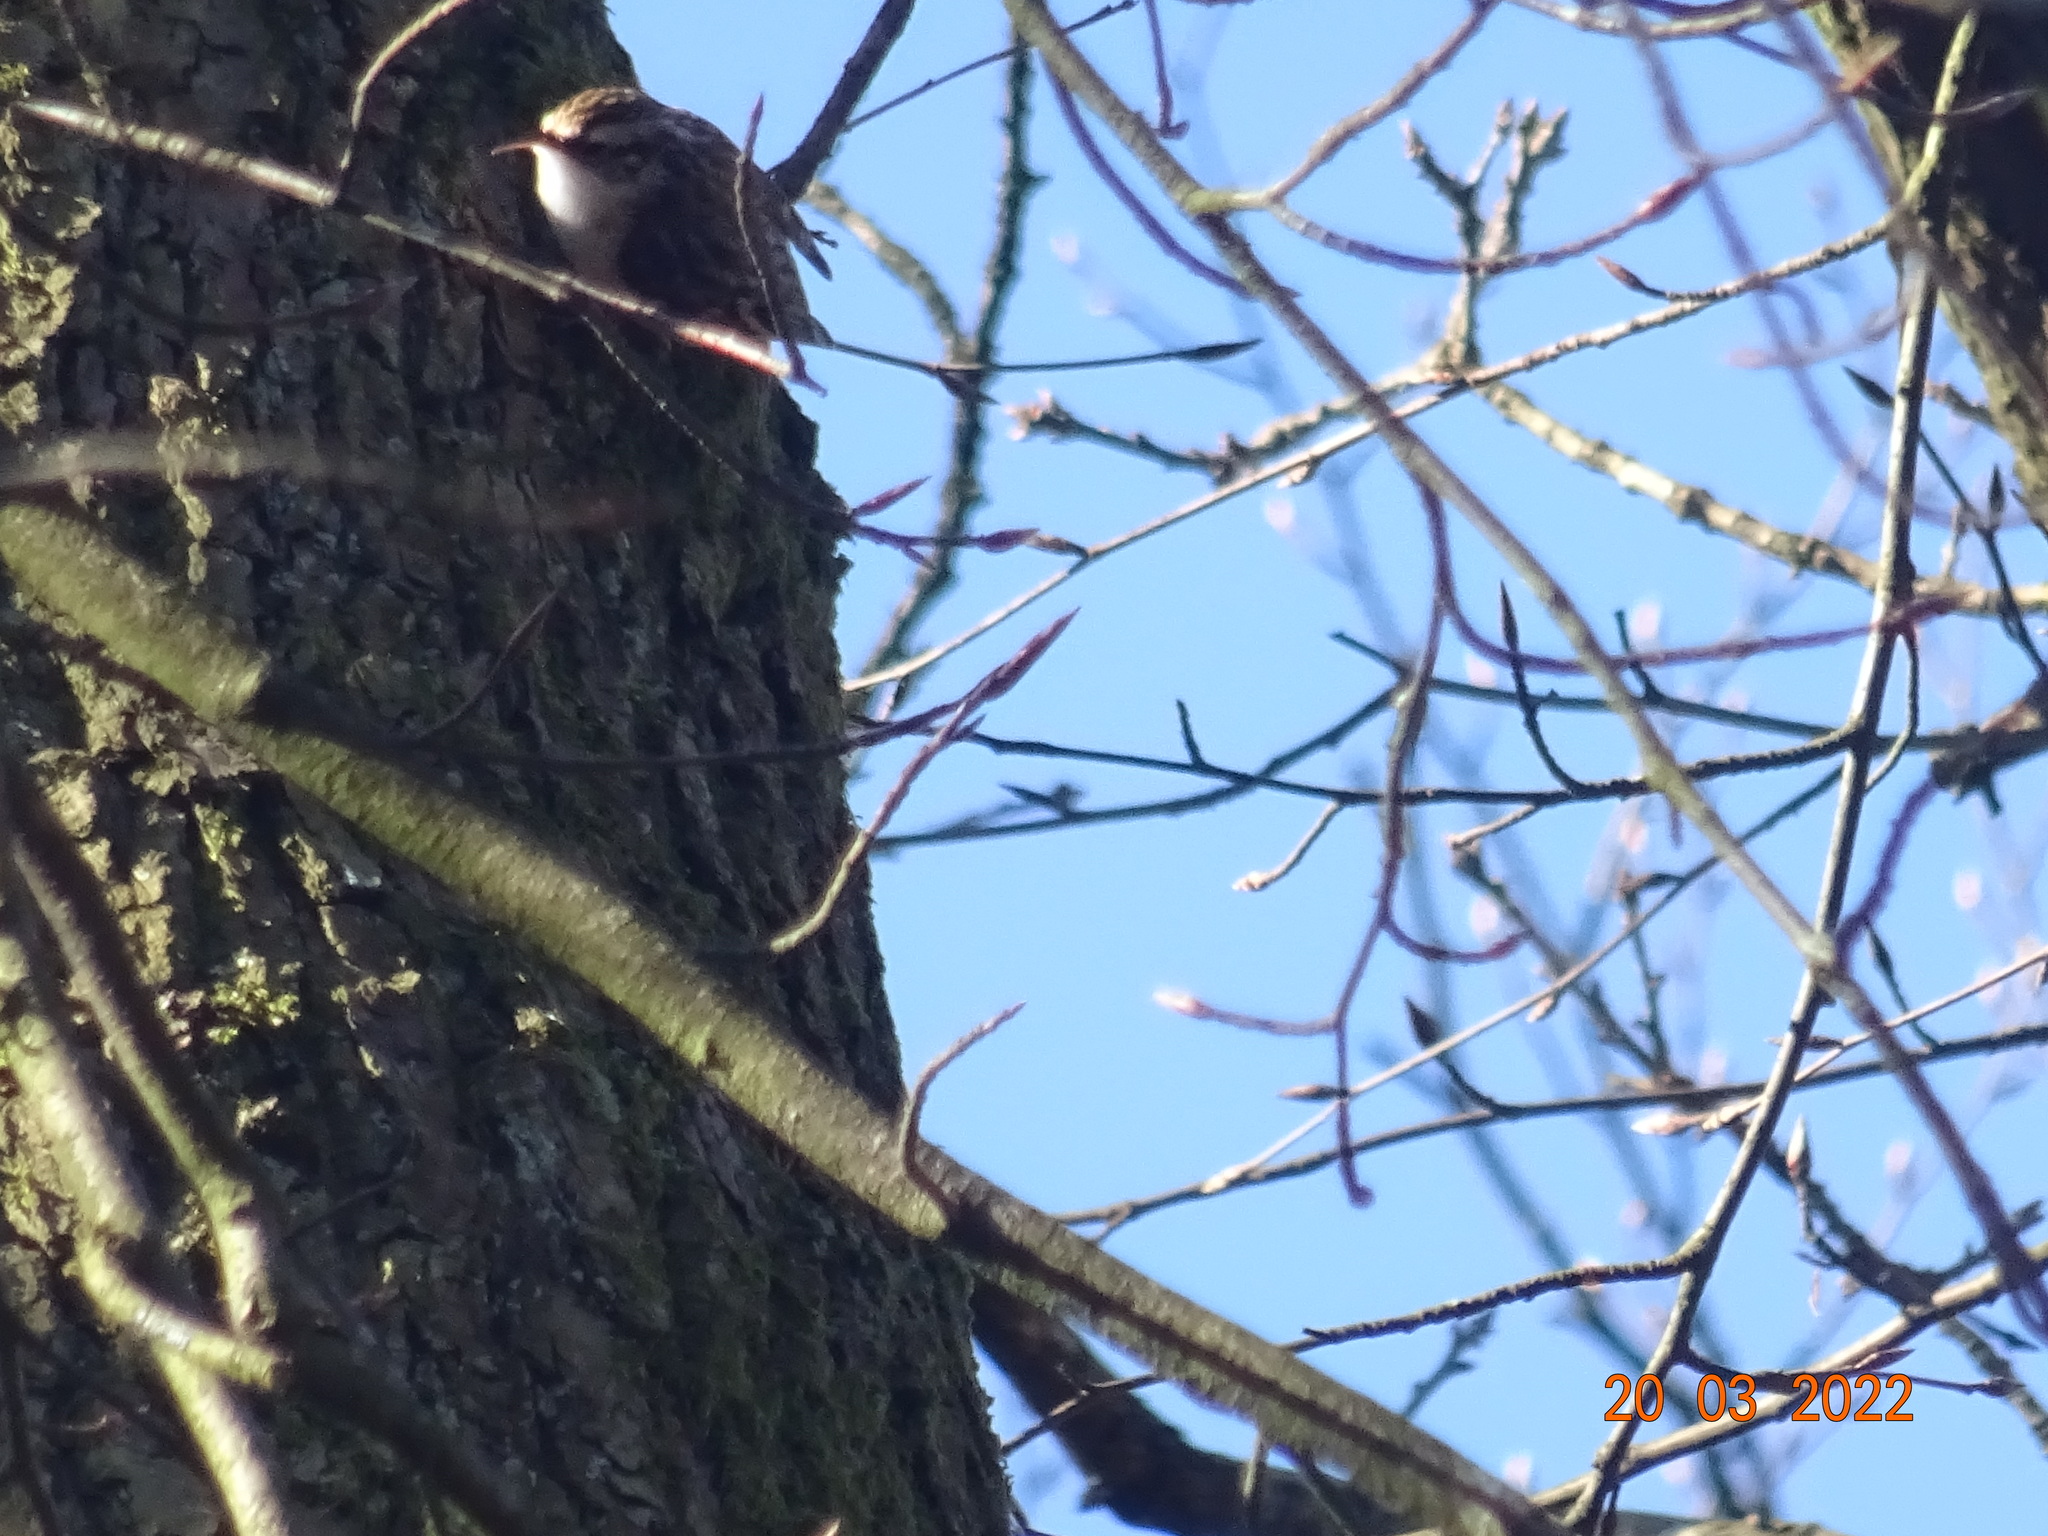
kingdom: Animalia
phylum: Chordata
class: Aves
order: Passeriformes
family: Certhiidae
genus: Certhia
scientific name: Certhia familiaris
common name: Eurasian treecreeper
